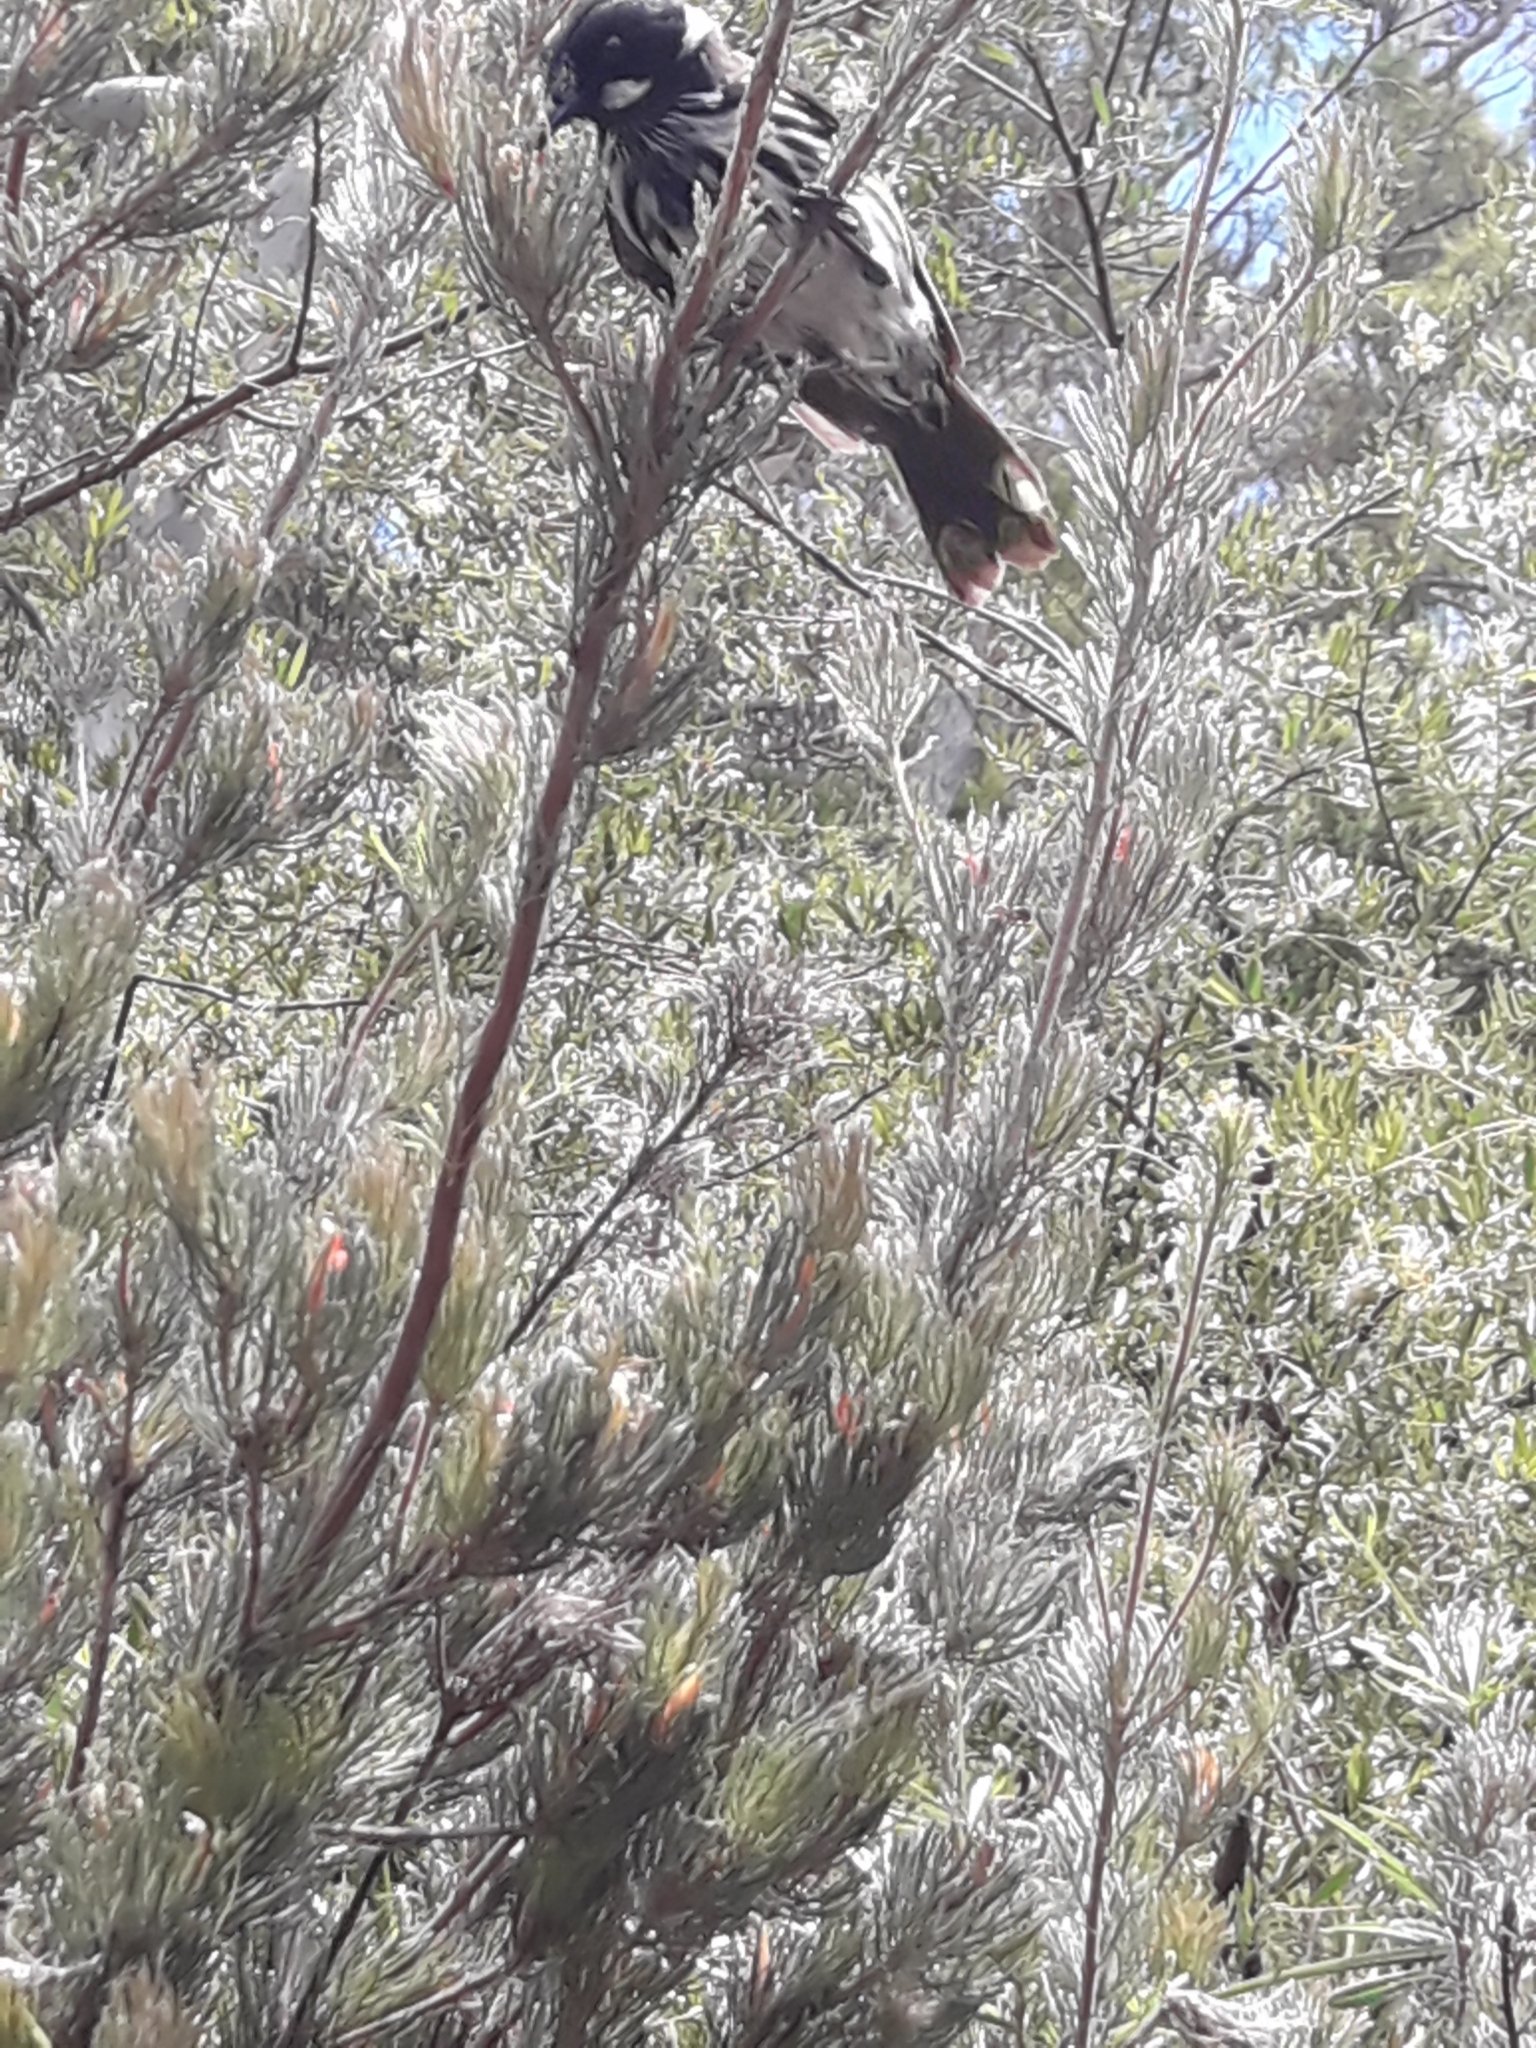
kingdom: Animalia
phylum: Chordata
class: Aves
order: Passeriformes
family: Meliphagidae
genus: Phylidonyris
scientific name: Phylidonyris novaehollandiae
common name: New holland honeyeater
